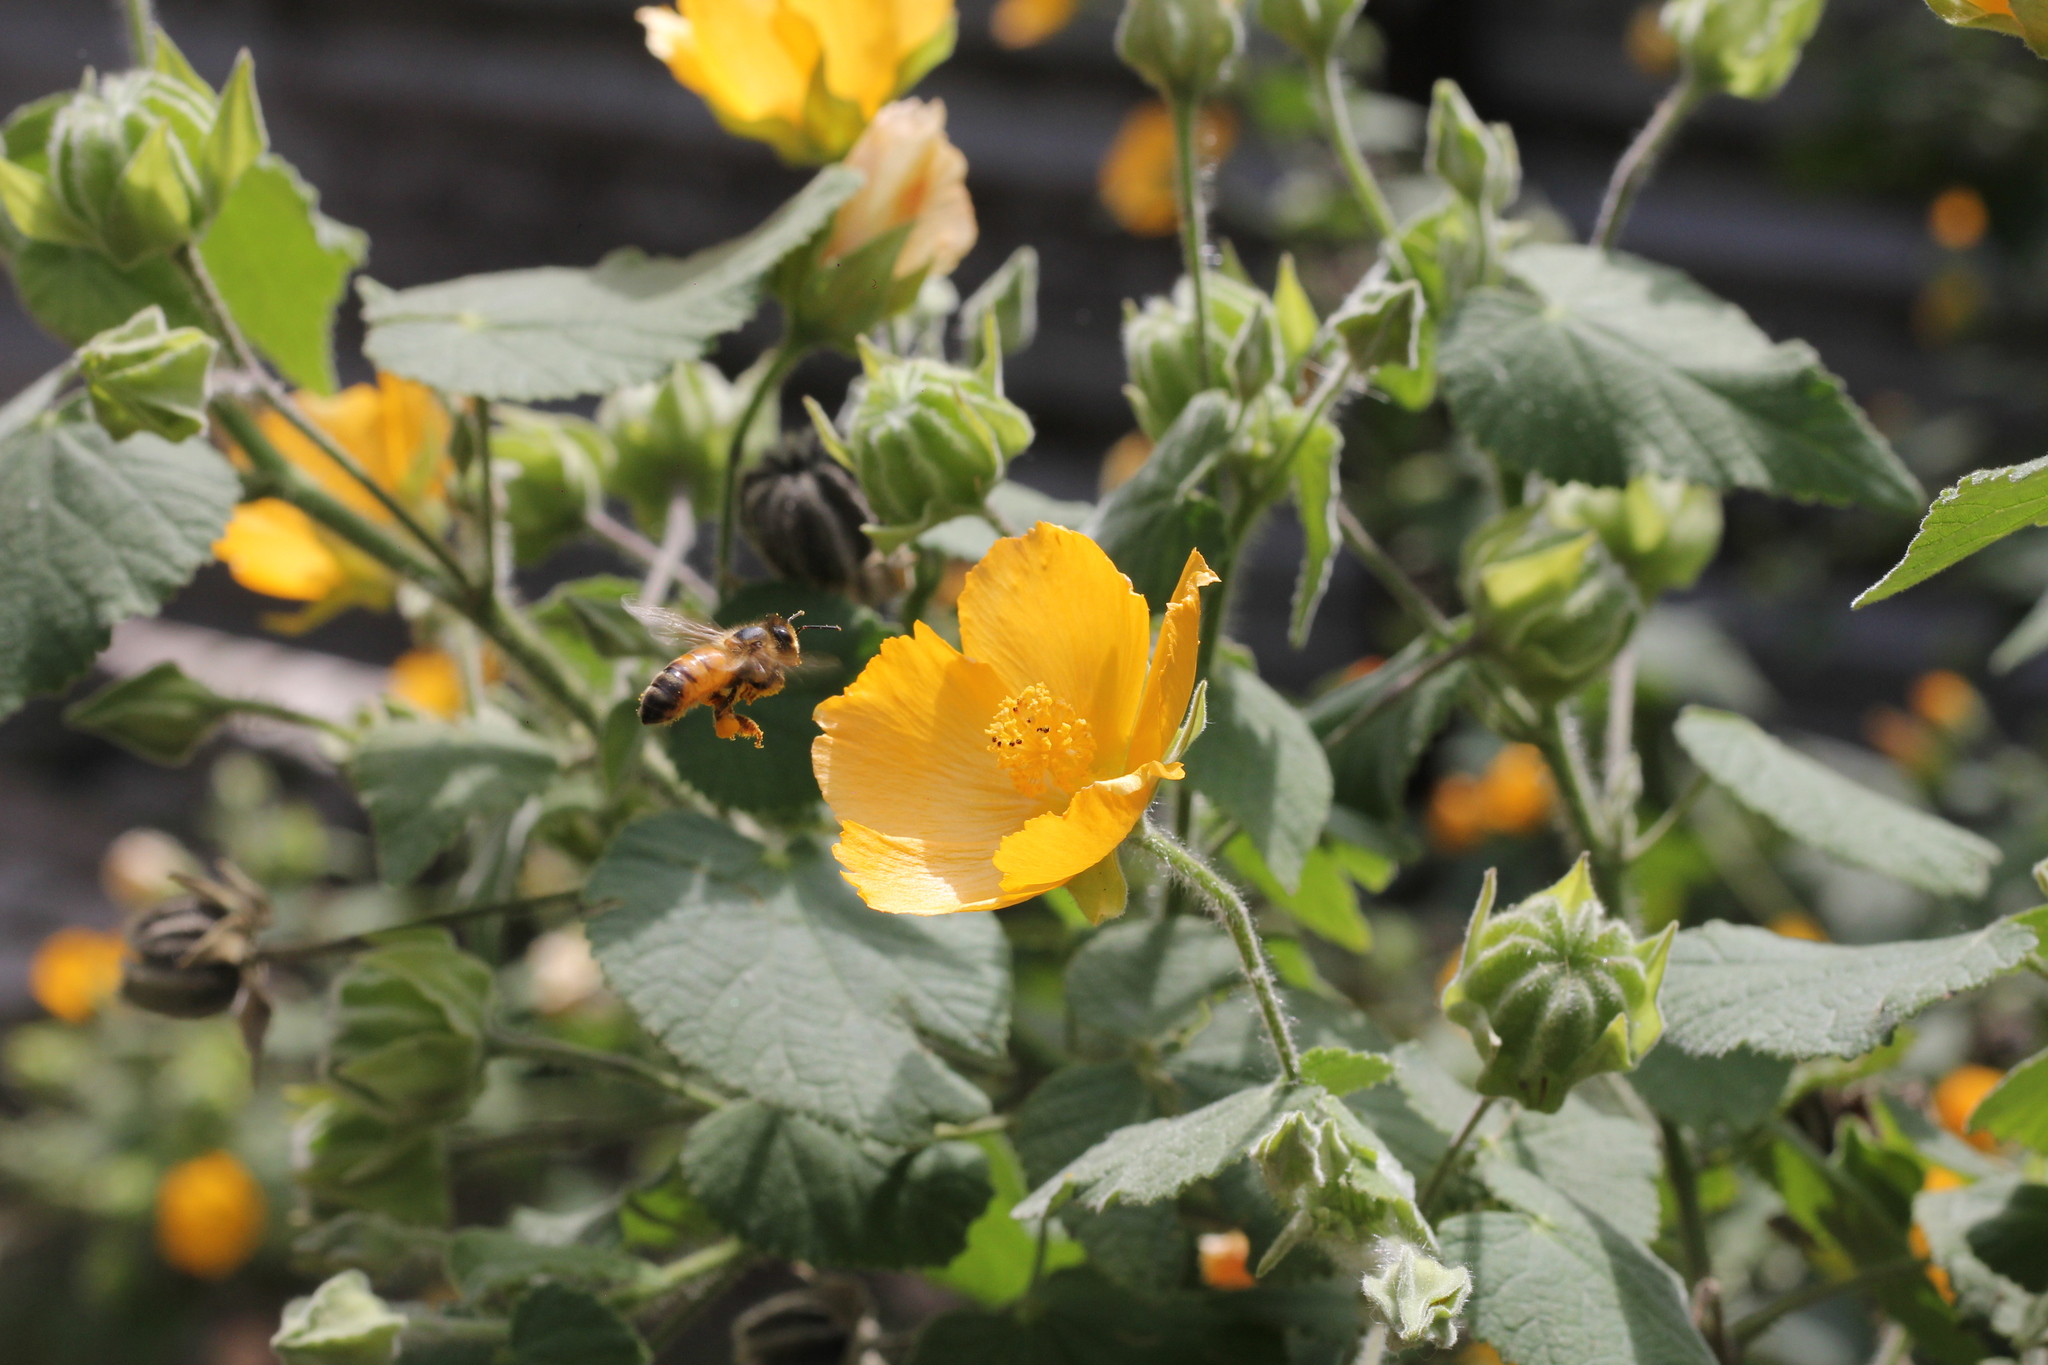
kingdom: Animalia
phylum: Arthropoda
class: Insecta
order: Hymenoptera
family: Apidae
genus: Apis
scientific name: Apis mellifera
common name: Honey bee
